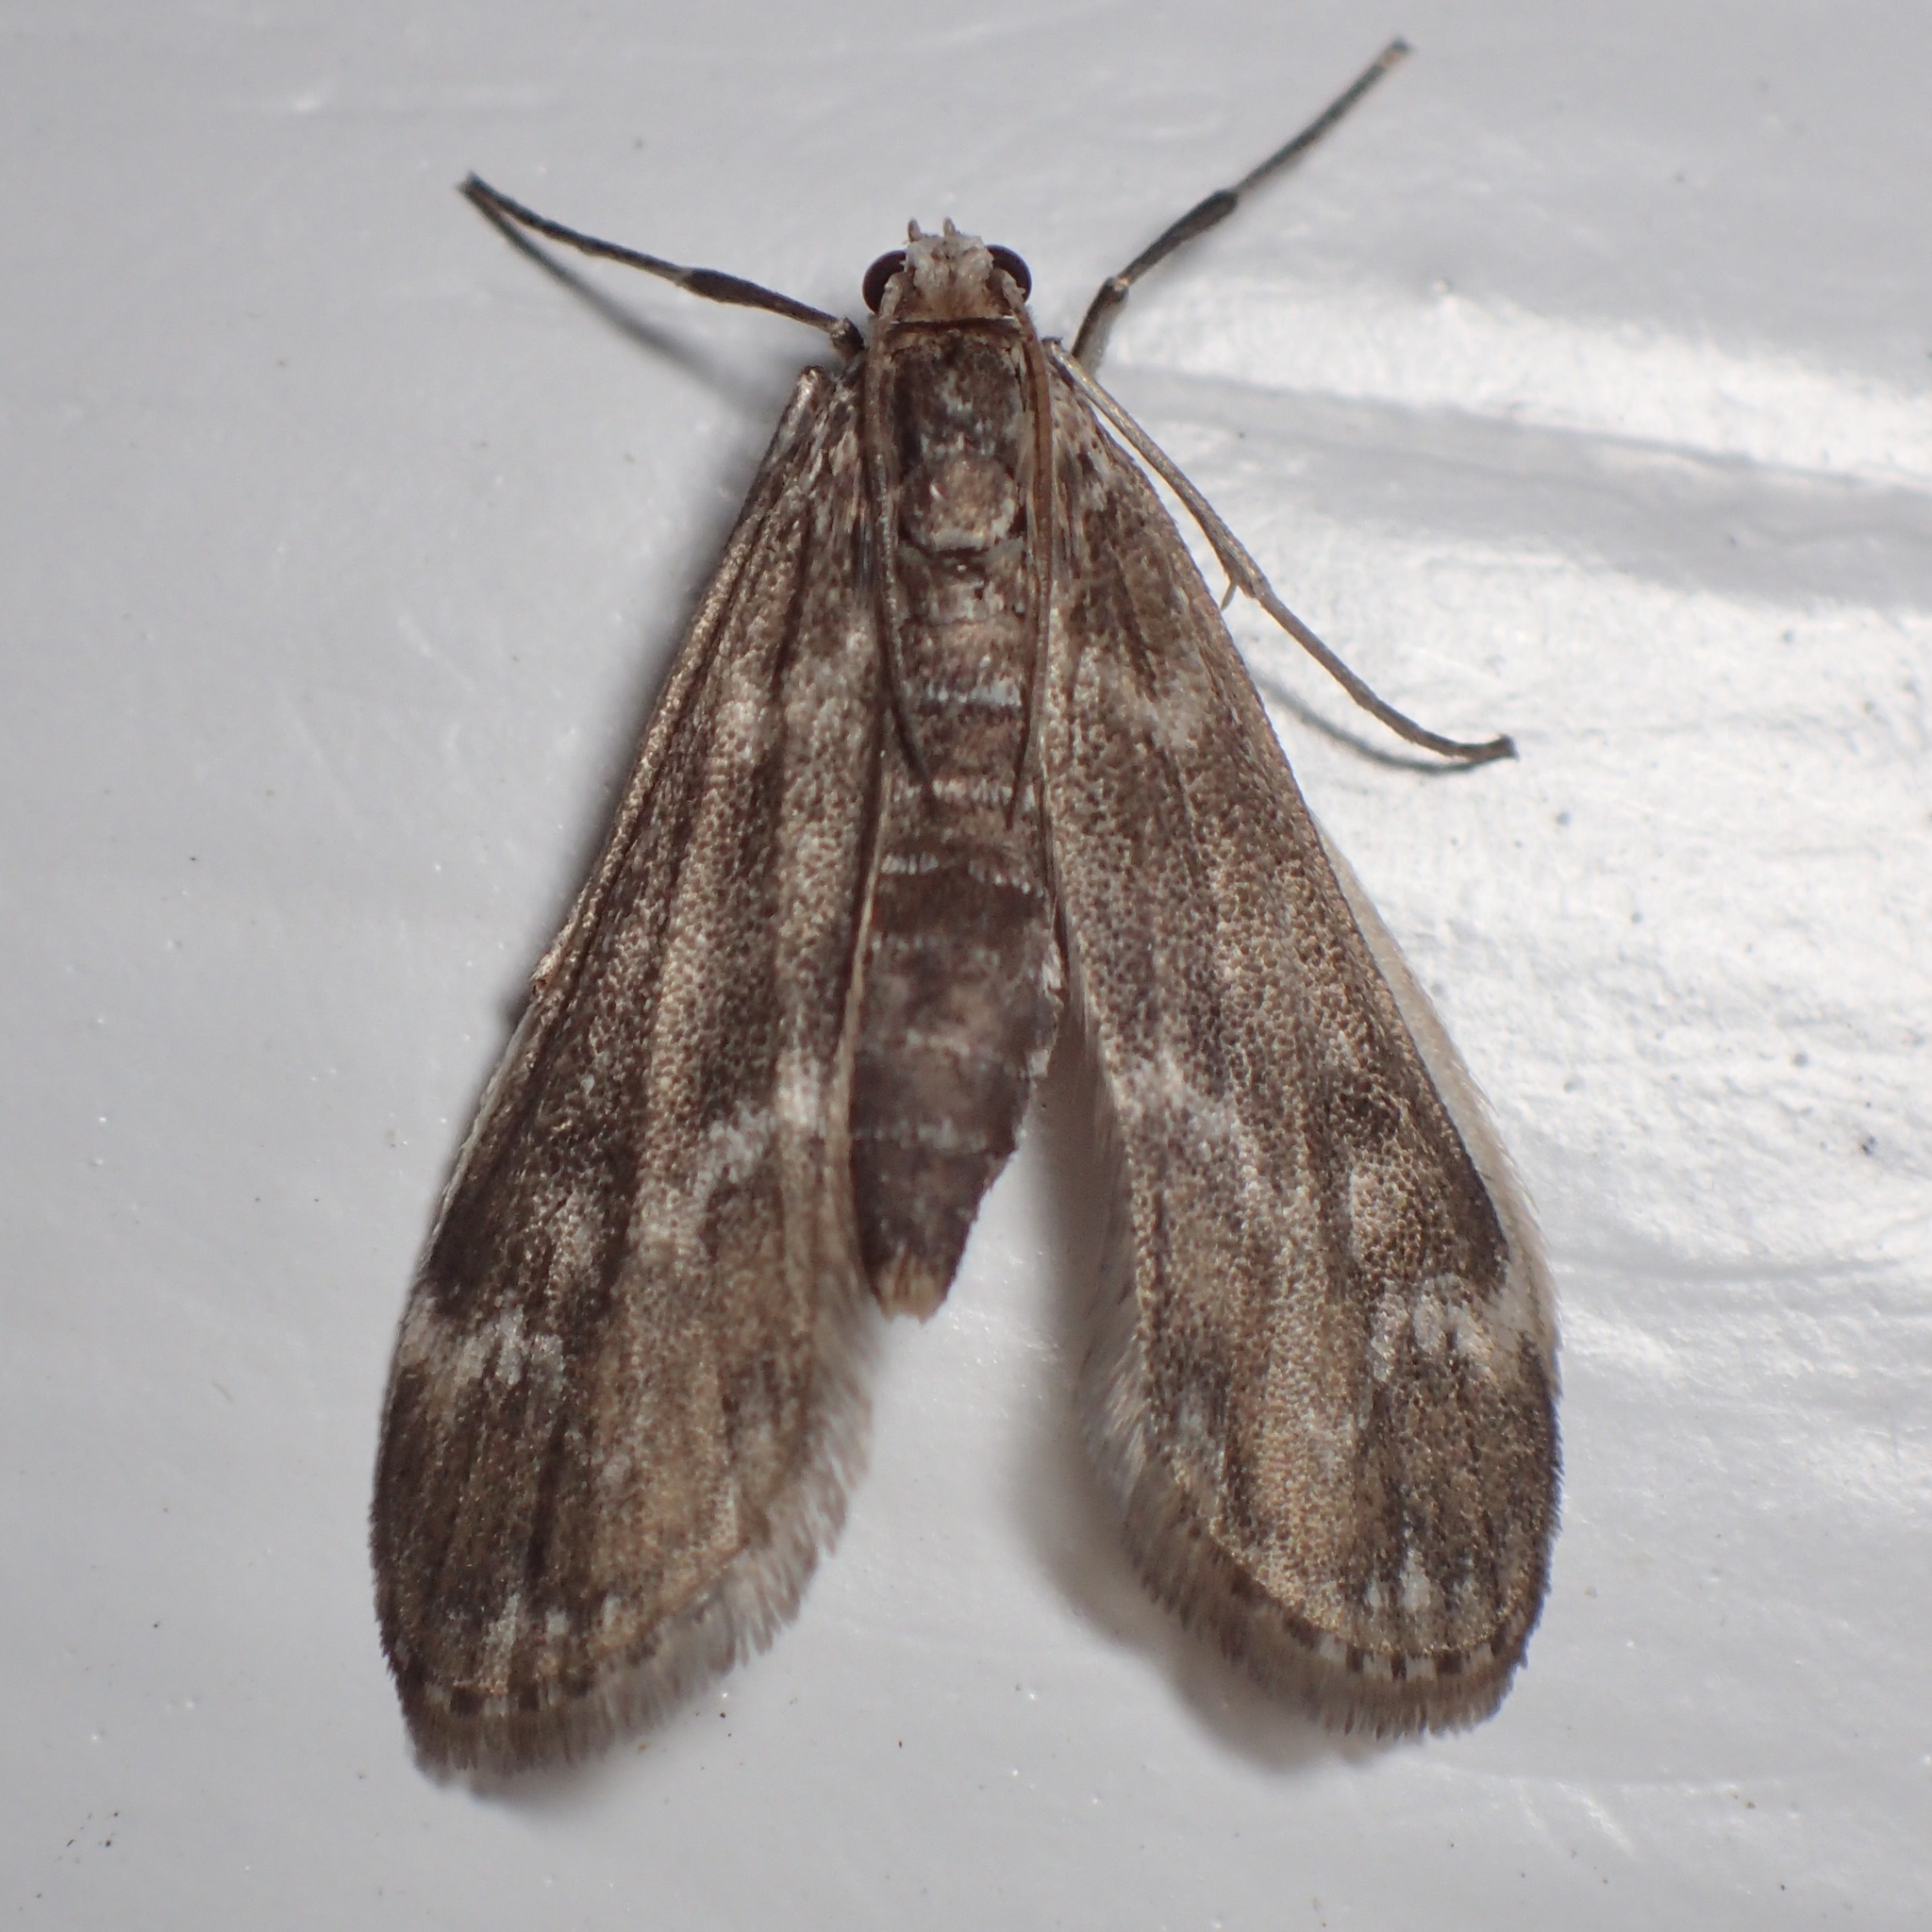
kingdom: Animalia
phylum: Arthropoda
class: Insecta
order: Lepidoptera
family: Crambidae
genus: Hygraula
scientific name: Hygraula nitens
